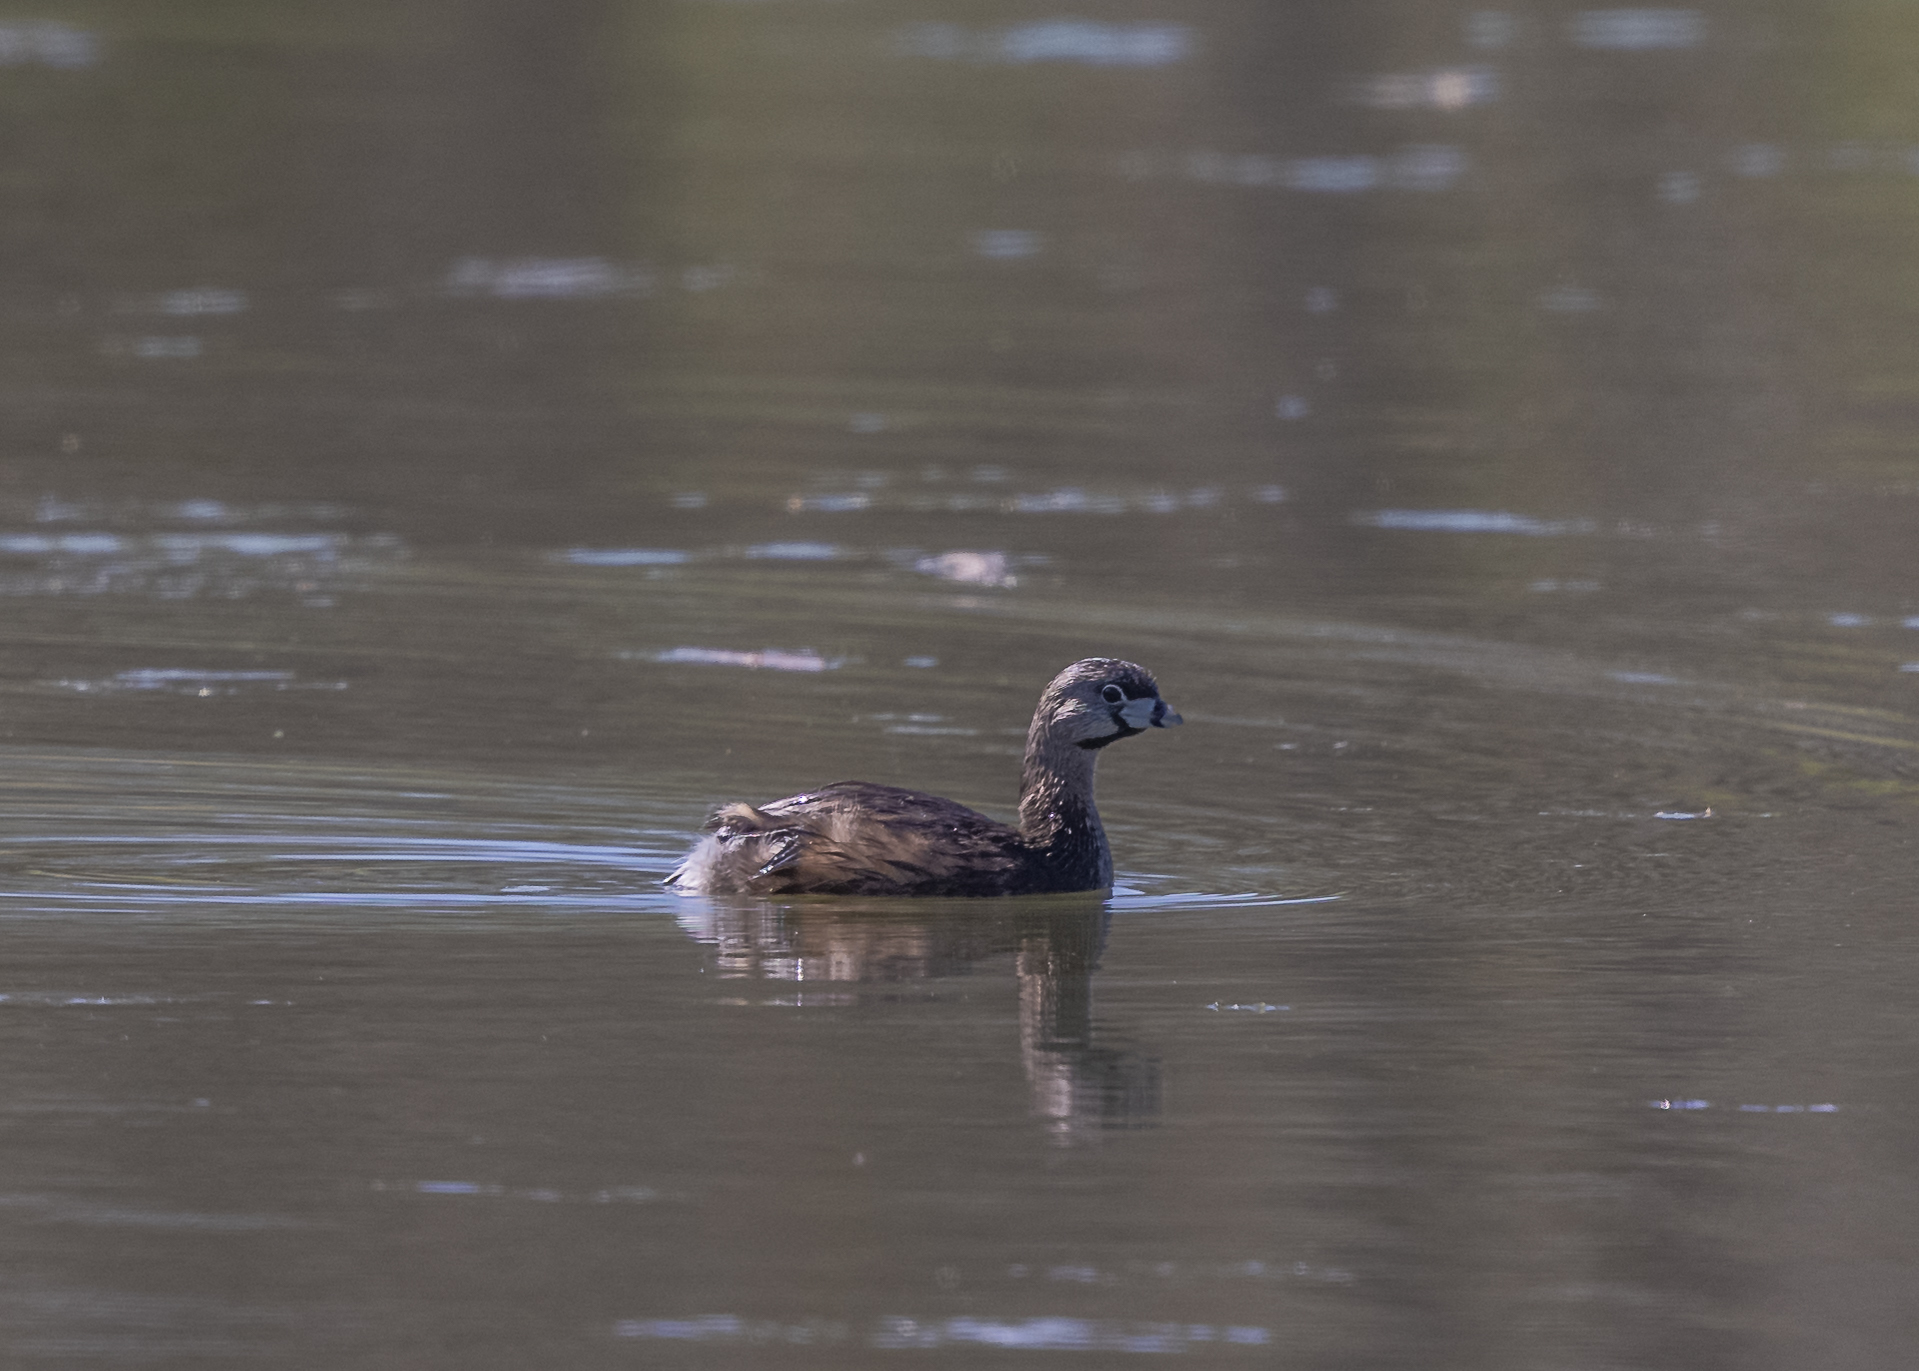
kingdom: Animalia
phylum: Chordata
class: Aves
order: Podicipediformes
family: Podicipedidae
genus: Podilymbus
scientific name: Podilymbus podiceps
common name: Pied-billed grebe
